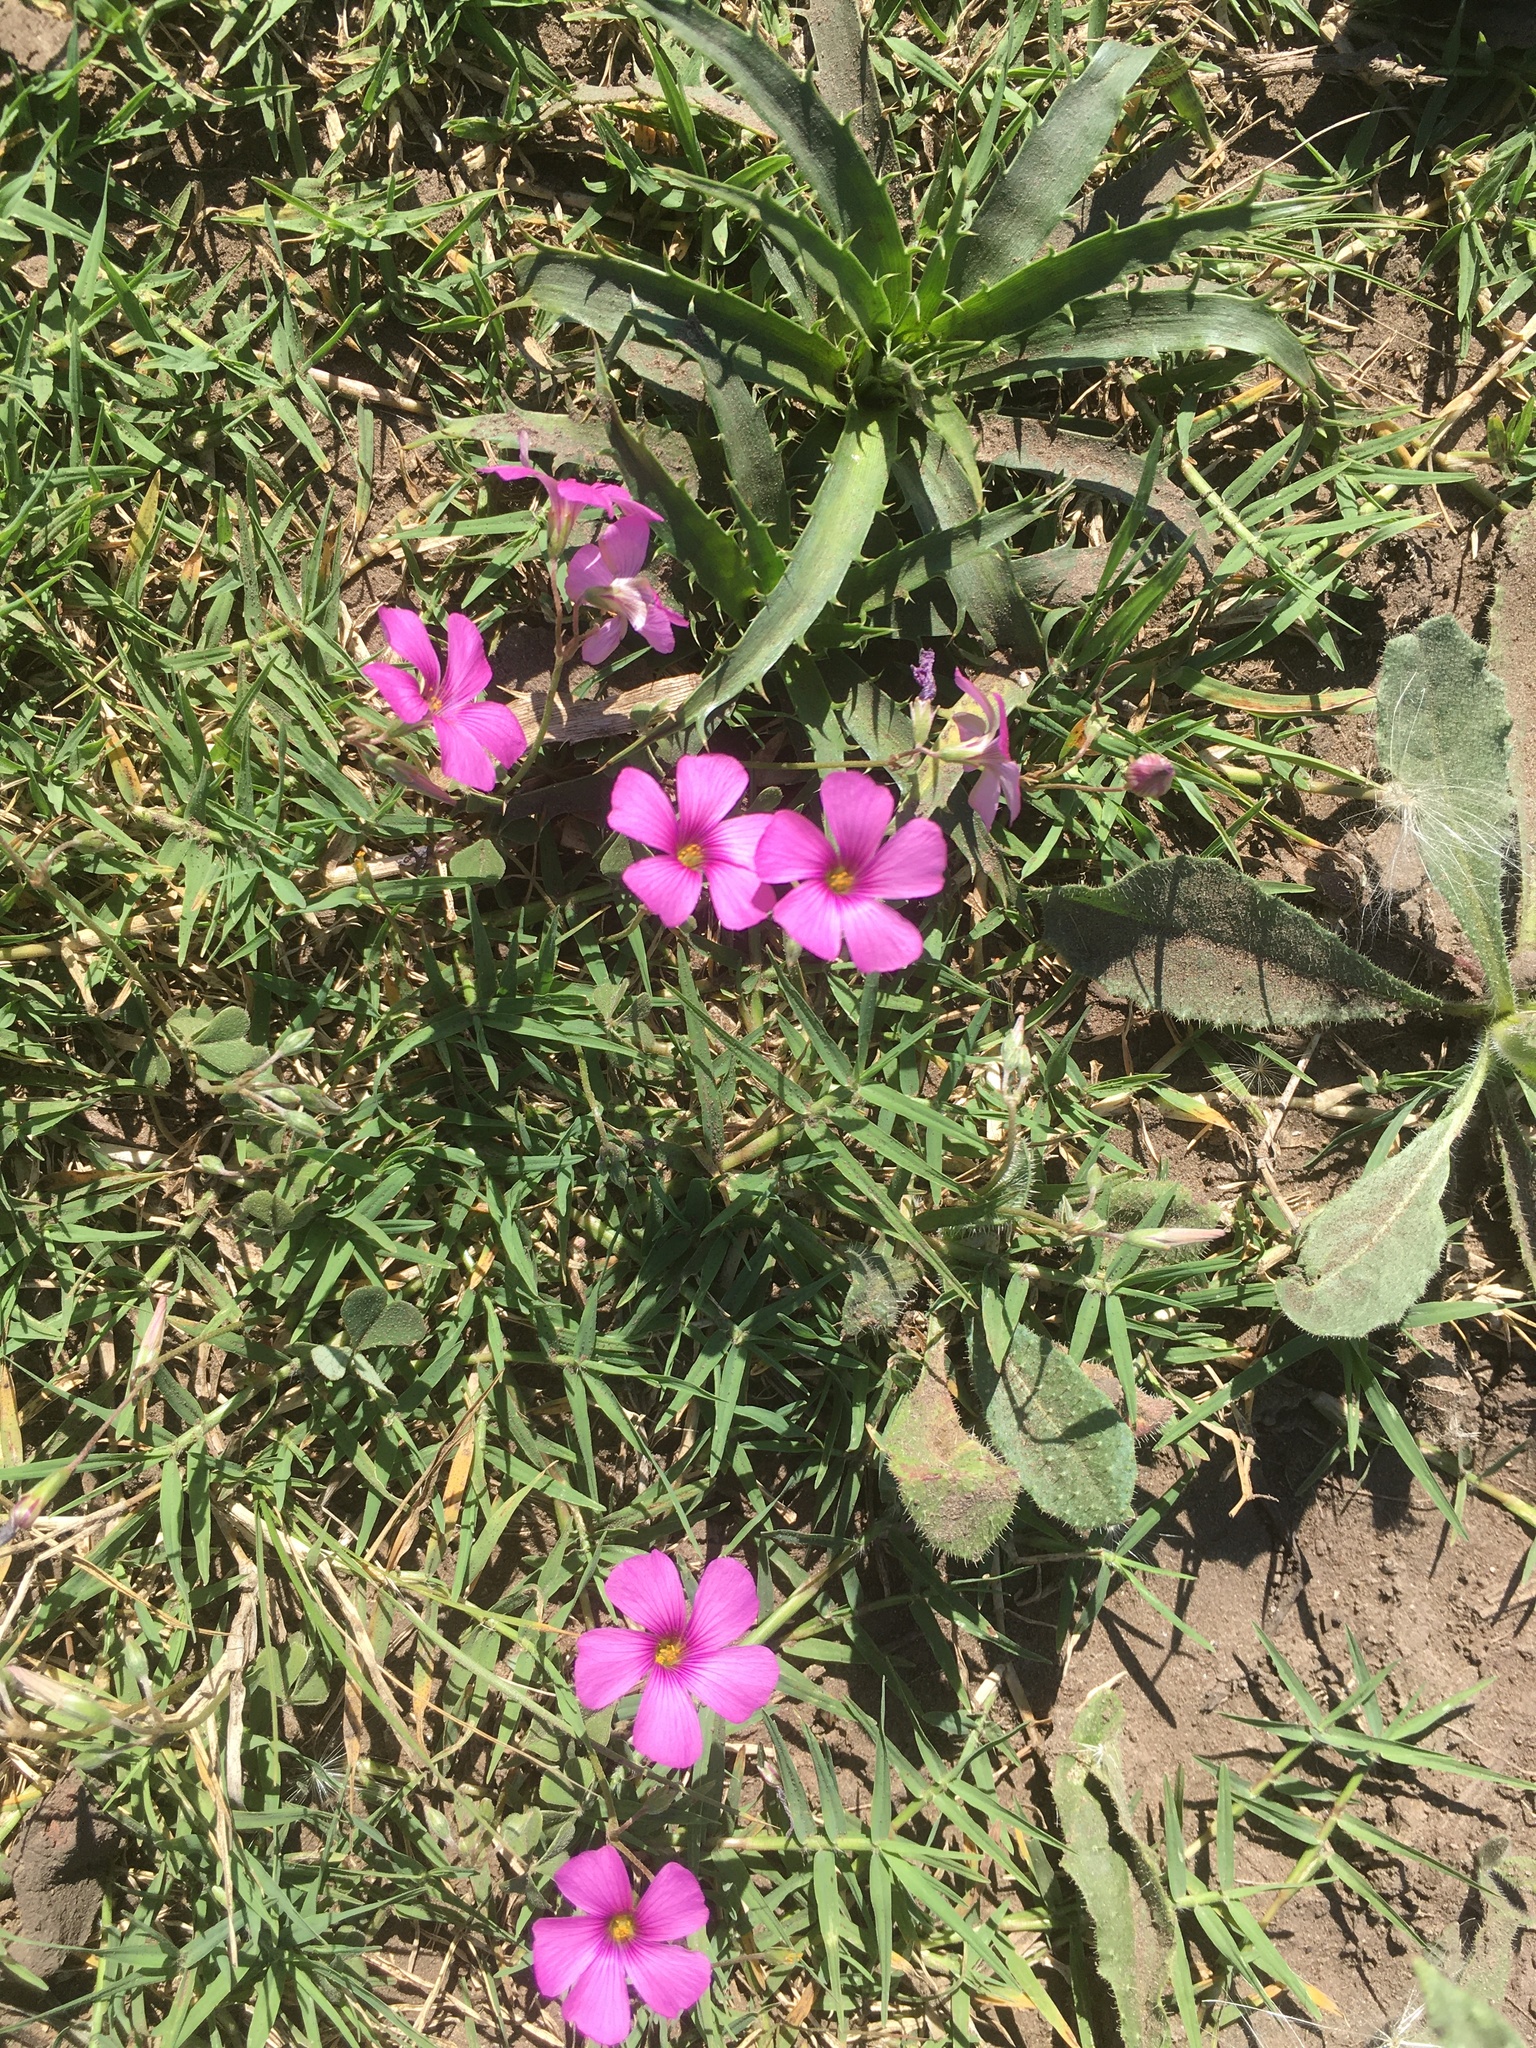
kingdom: Plantae
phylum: Tracheophyta
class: Magnoliopsida
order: Oxalidales
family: Oxalidaceae
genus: Oxalis
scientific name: Oxalis articulata
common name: Pink-sorrel
